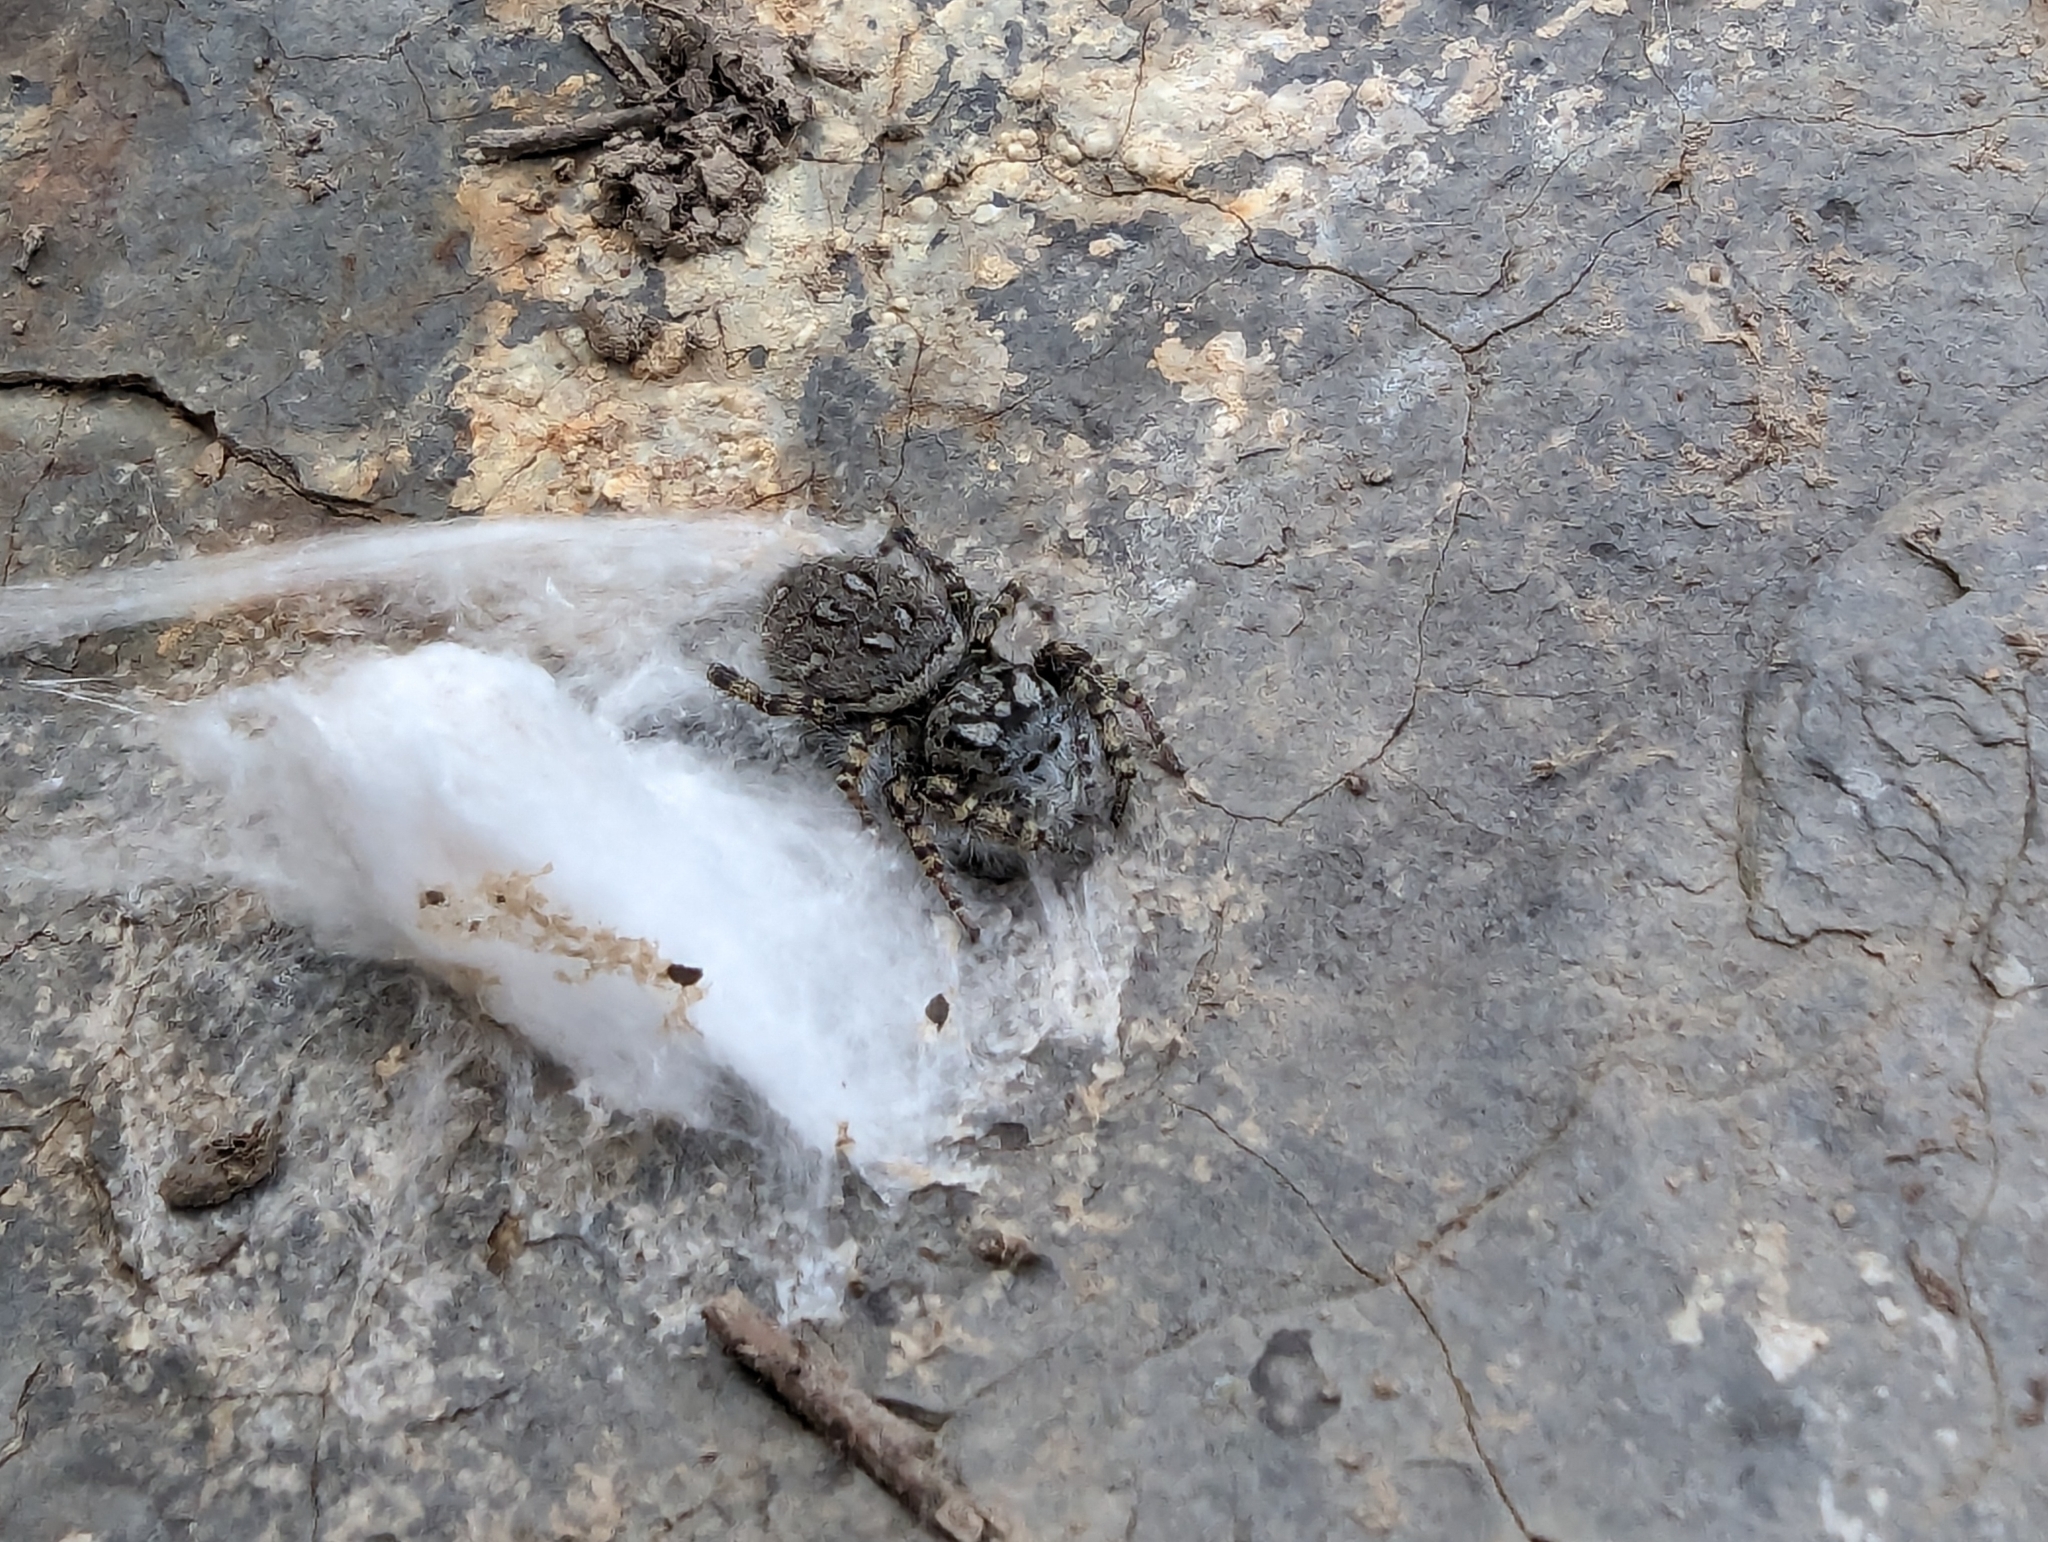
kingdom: Animalia
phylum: Arthropoda
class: Arachnida
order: Araneae
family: Salticidae
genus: Phidippus
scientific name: Phidippus mystaceus
